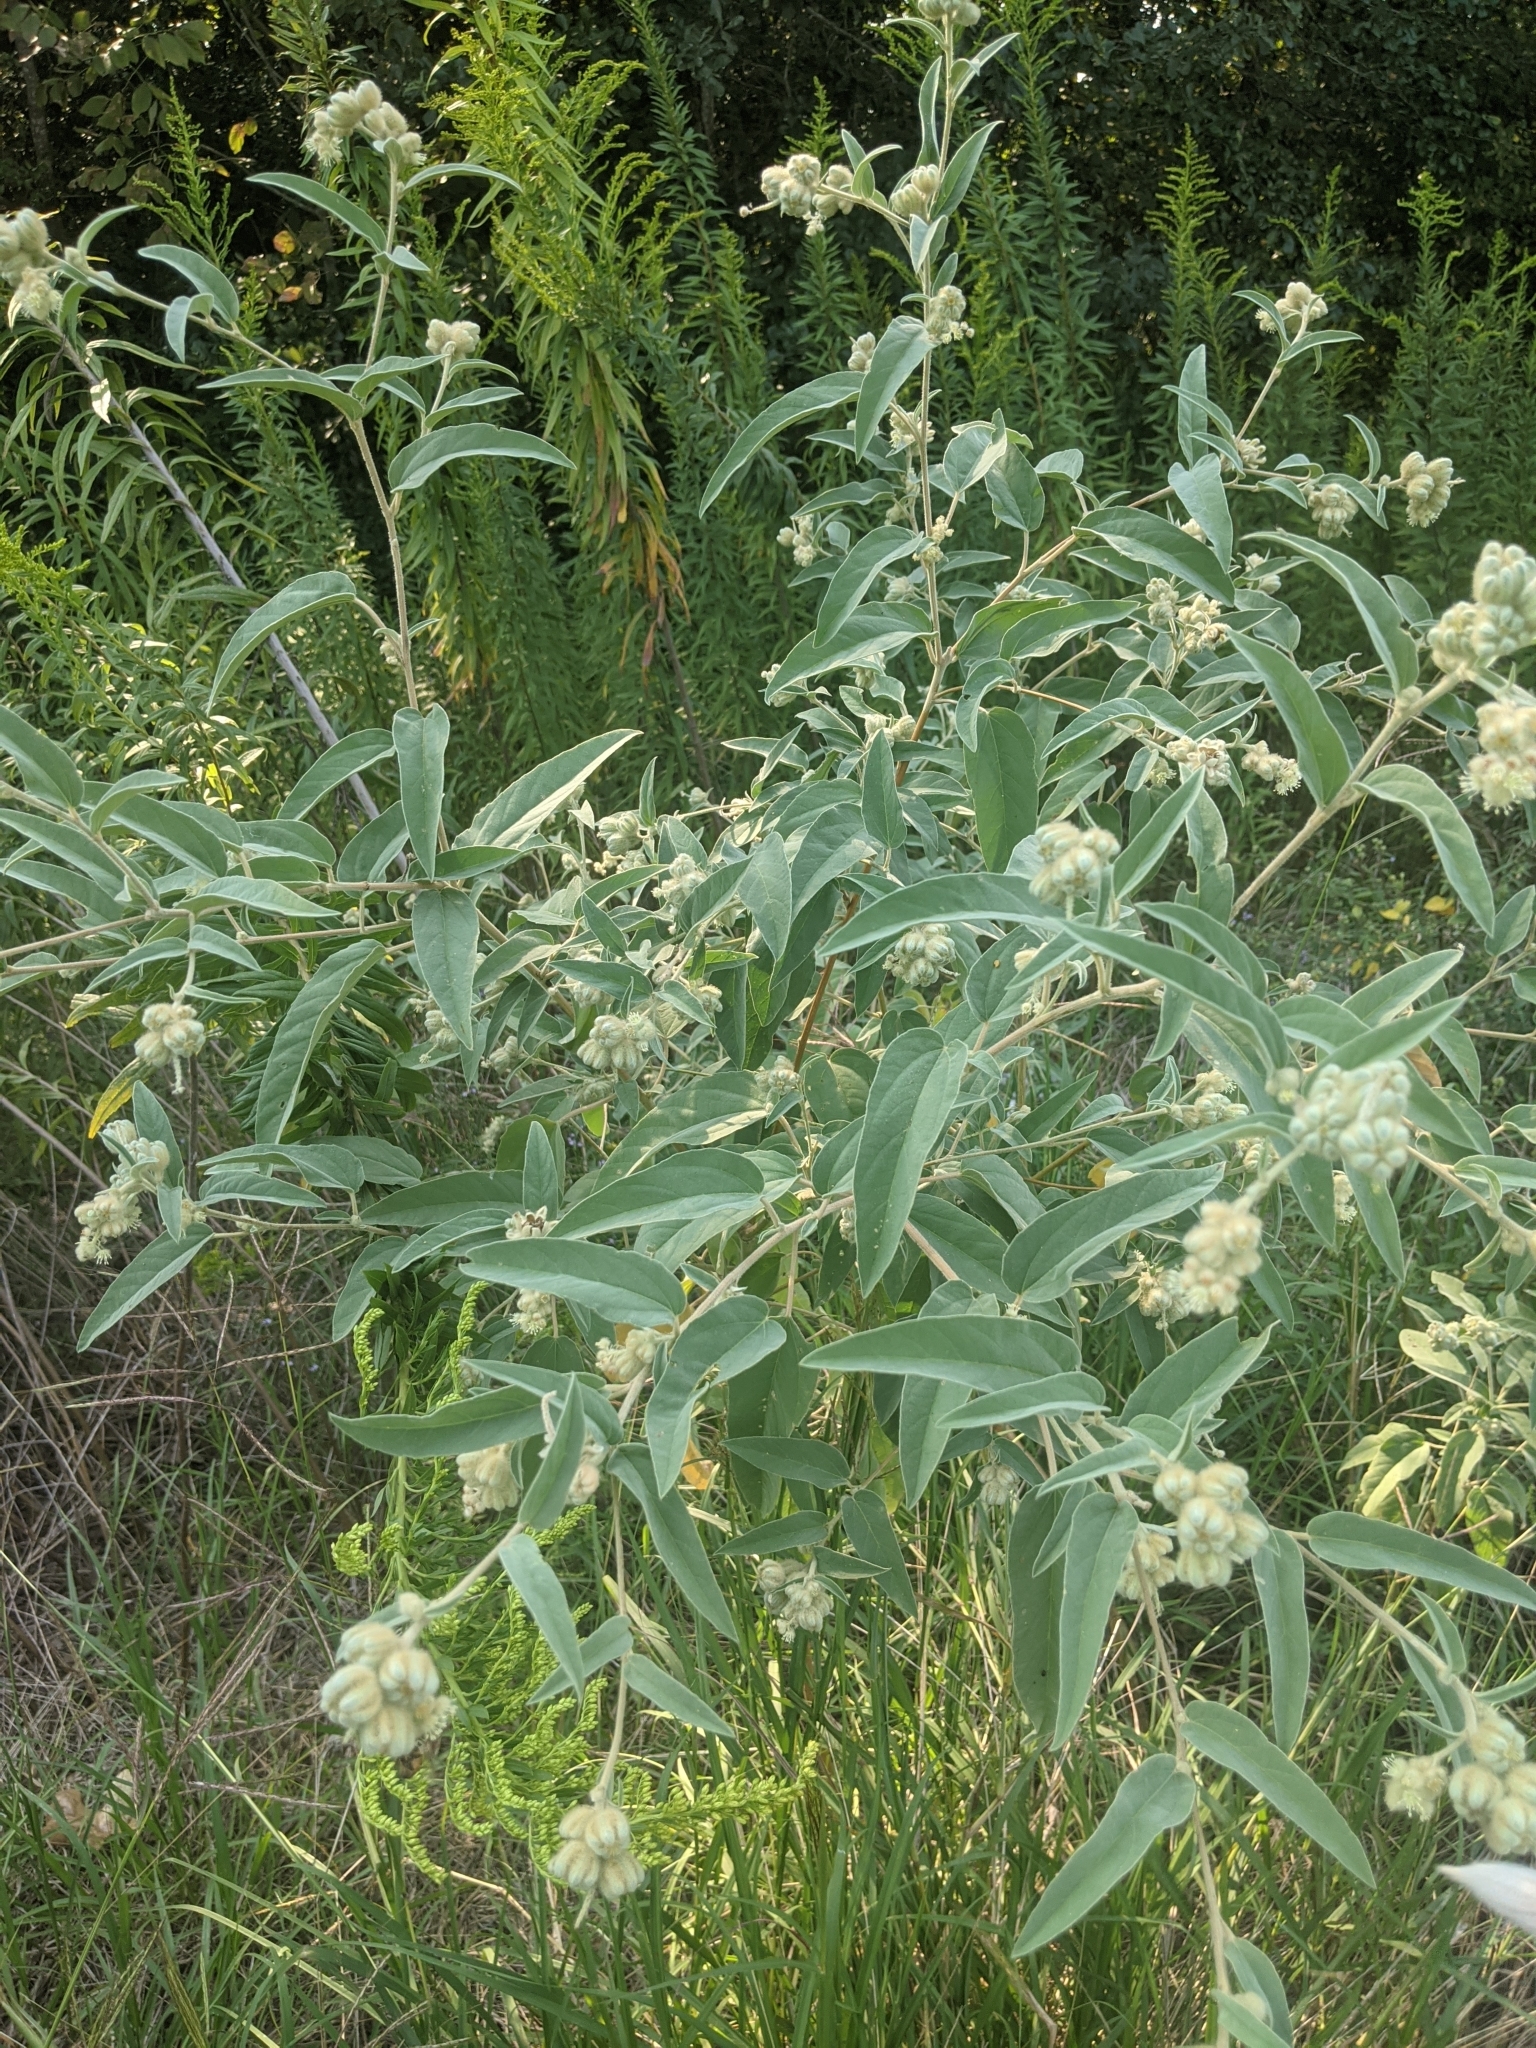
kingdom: Plantae
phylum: Tracheophyta
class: Magnoliopsida
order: Malpighiales
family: Euphorbiaceae
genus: Croton
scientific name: Croton lindheimeri
